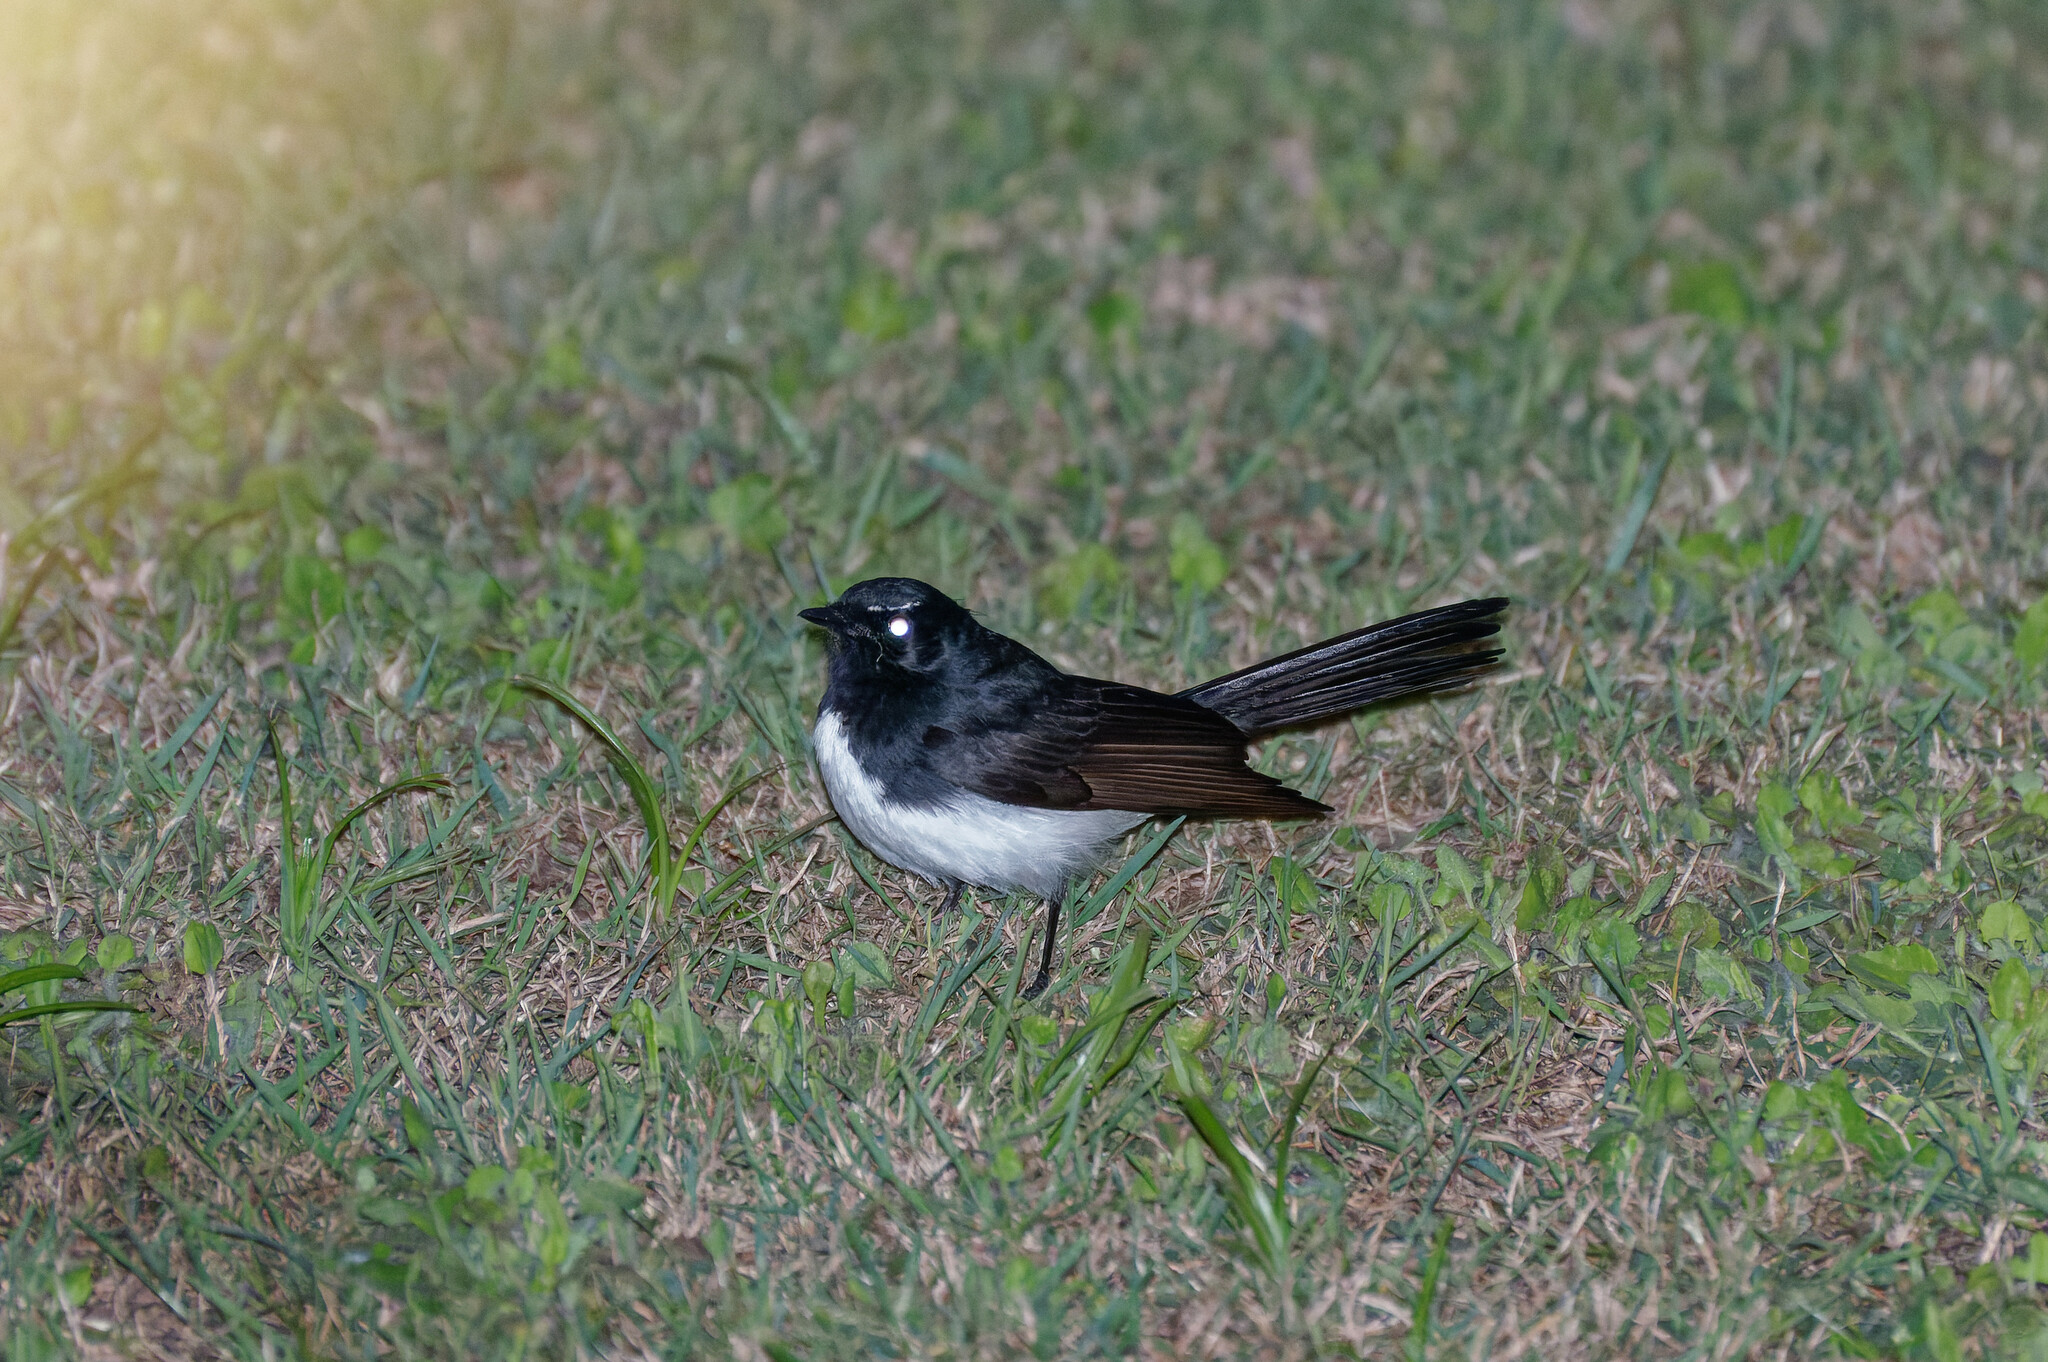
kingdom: Animalia
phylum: Chordata
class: Aves
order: Passeriformes
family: Rhipiduridae
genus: Rhipidura
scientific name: Rhipidura leucophrys
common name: Willie wagtail
